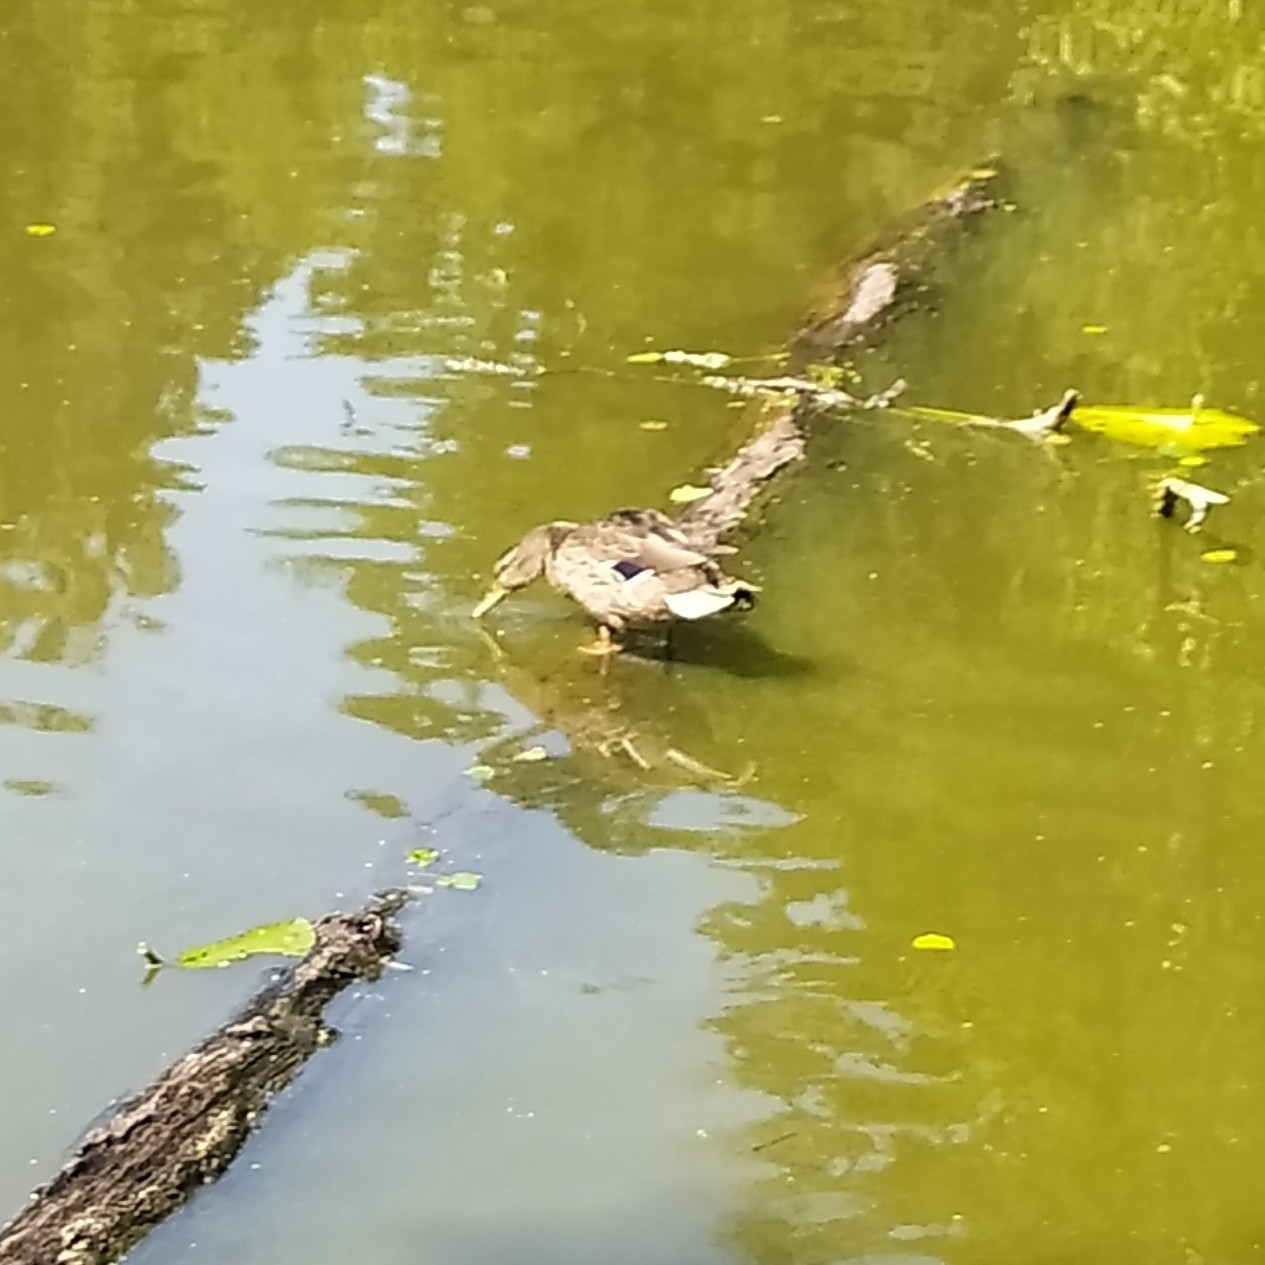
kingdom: Animalia
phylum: Chordata
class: Aves
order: Anseriformes
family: Anatidae
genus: Anas
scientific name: Anas platyrhynchos
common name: Mallard
